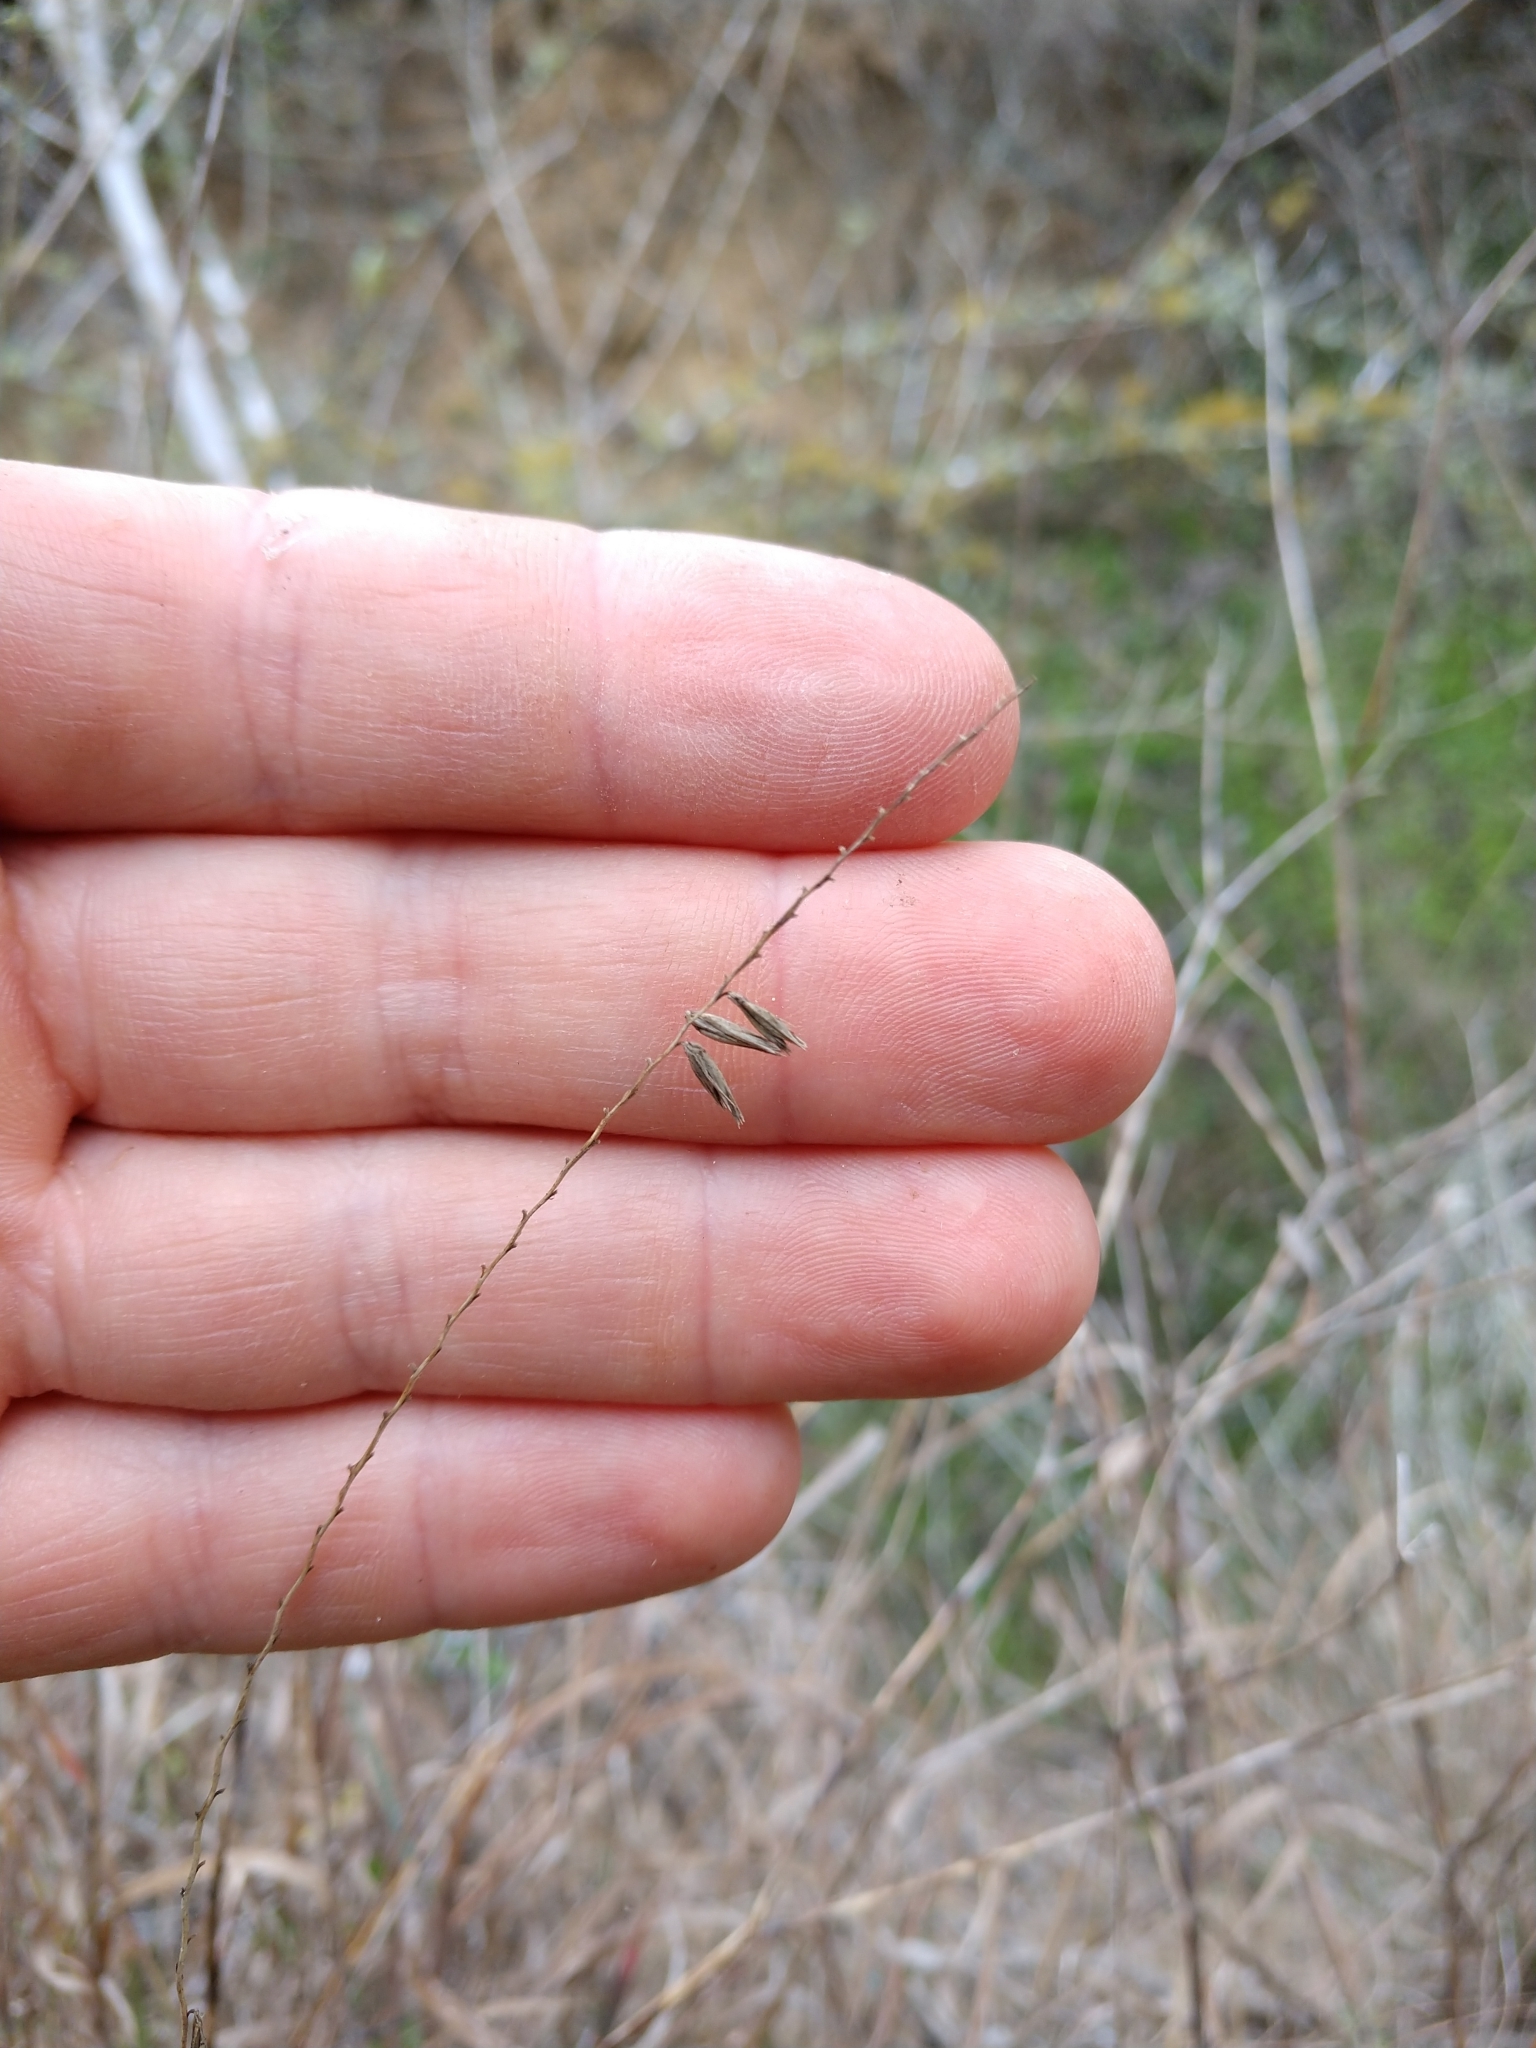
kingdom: Plantae
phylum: Tracheophyta
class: Liliopsida
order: Poales
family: Poaceae
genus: Bouteloua
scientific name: Bouteloua curtipendula
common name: Side-oats grama
